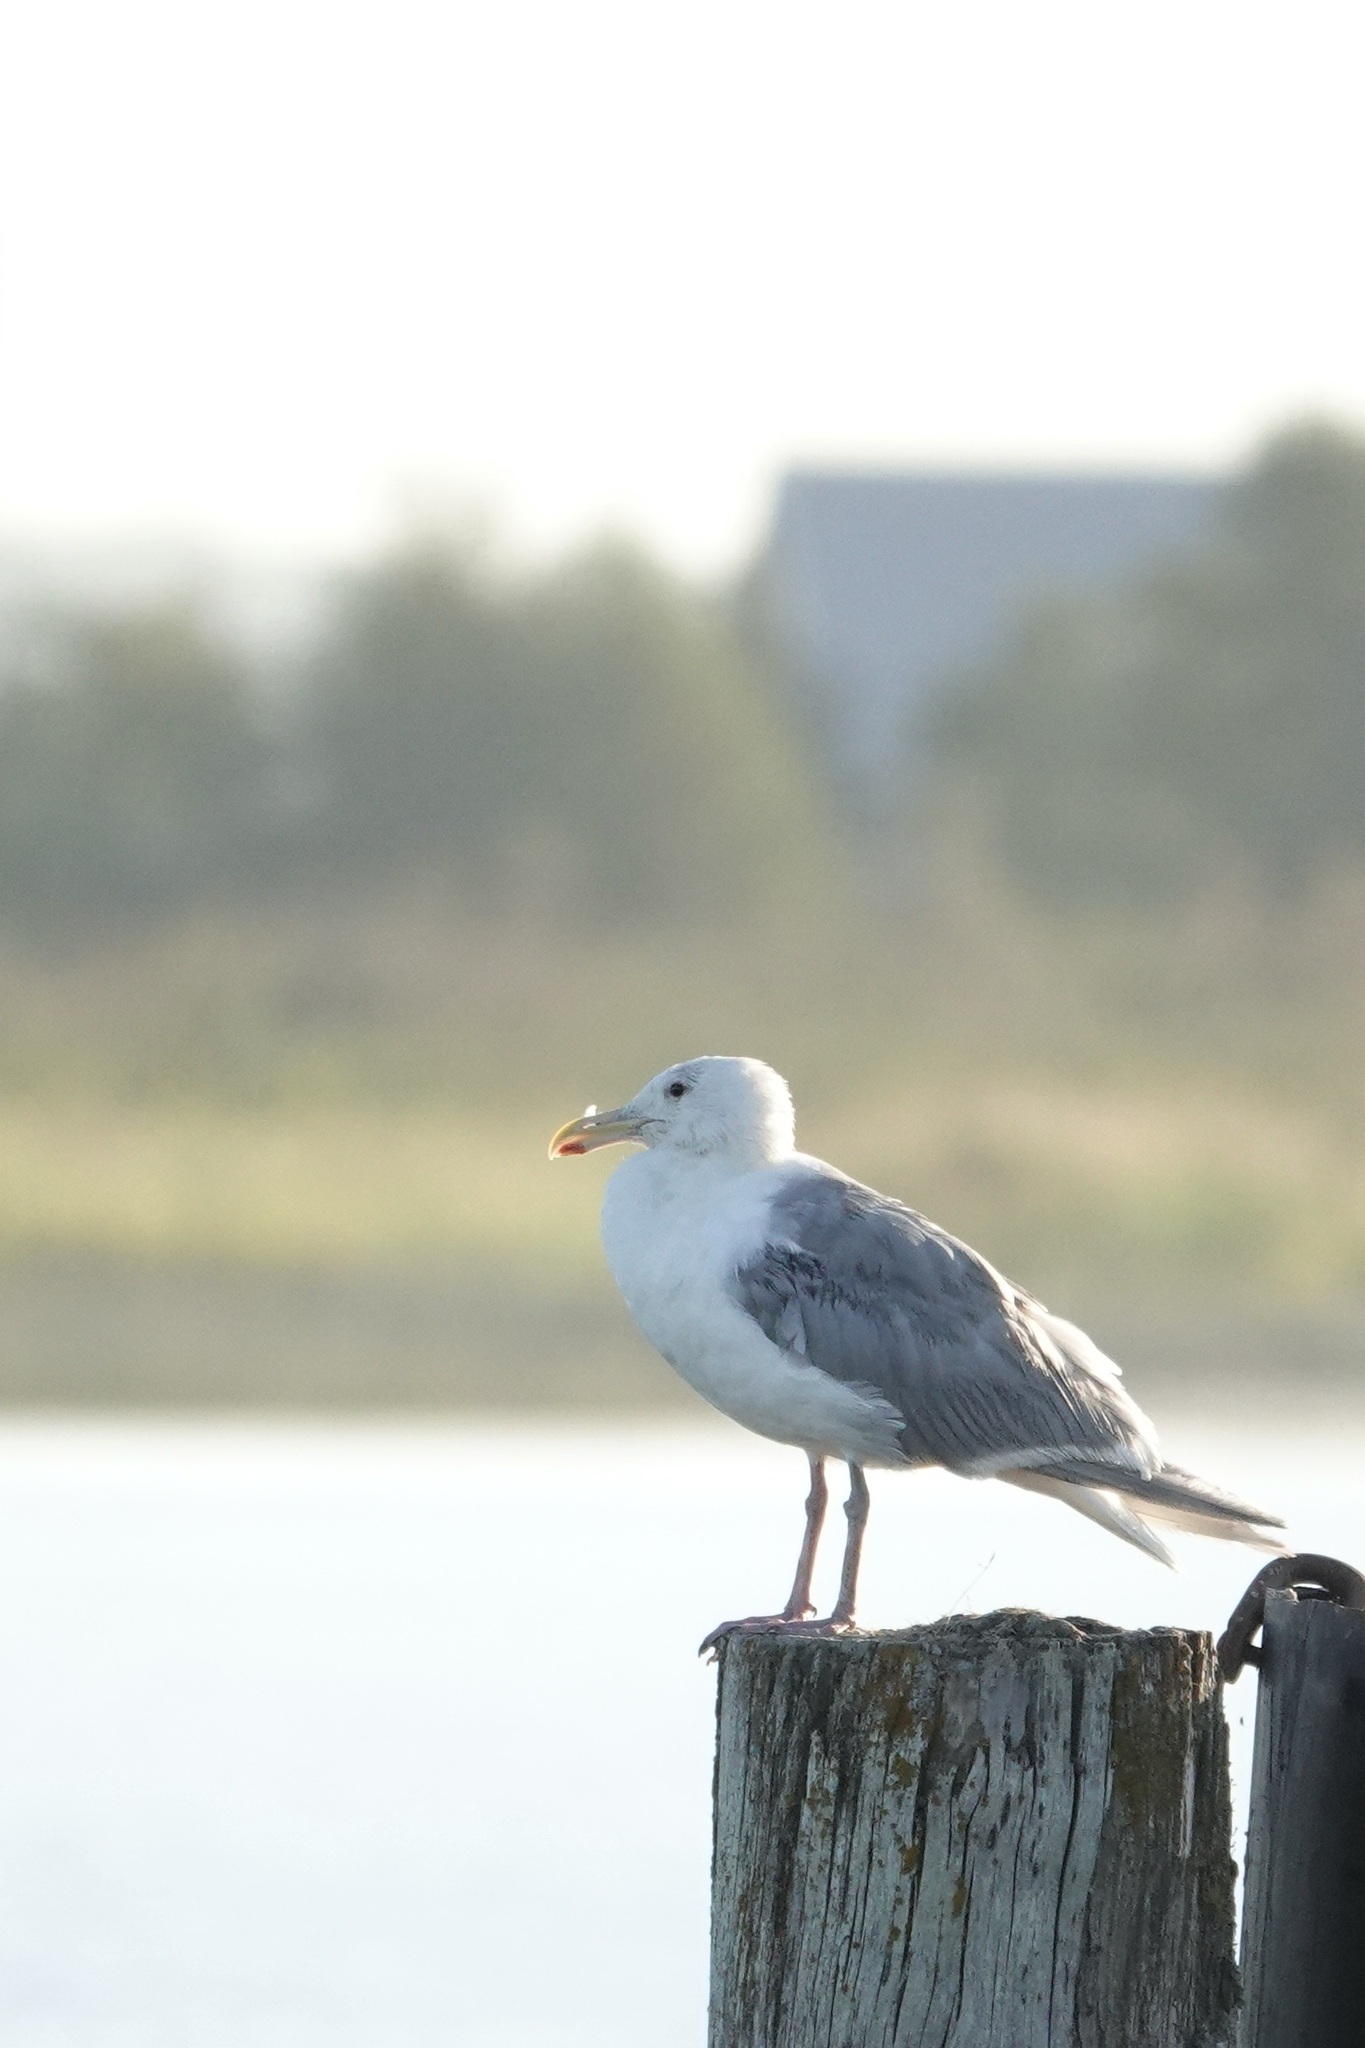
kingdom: Animalia
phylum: Chordata
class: Aves
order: Charadriiformes
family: Laridae
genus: Larus
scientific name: Larus glaucescens
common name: Glaucous-winged gull
